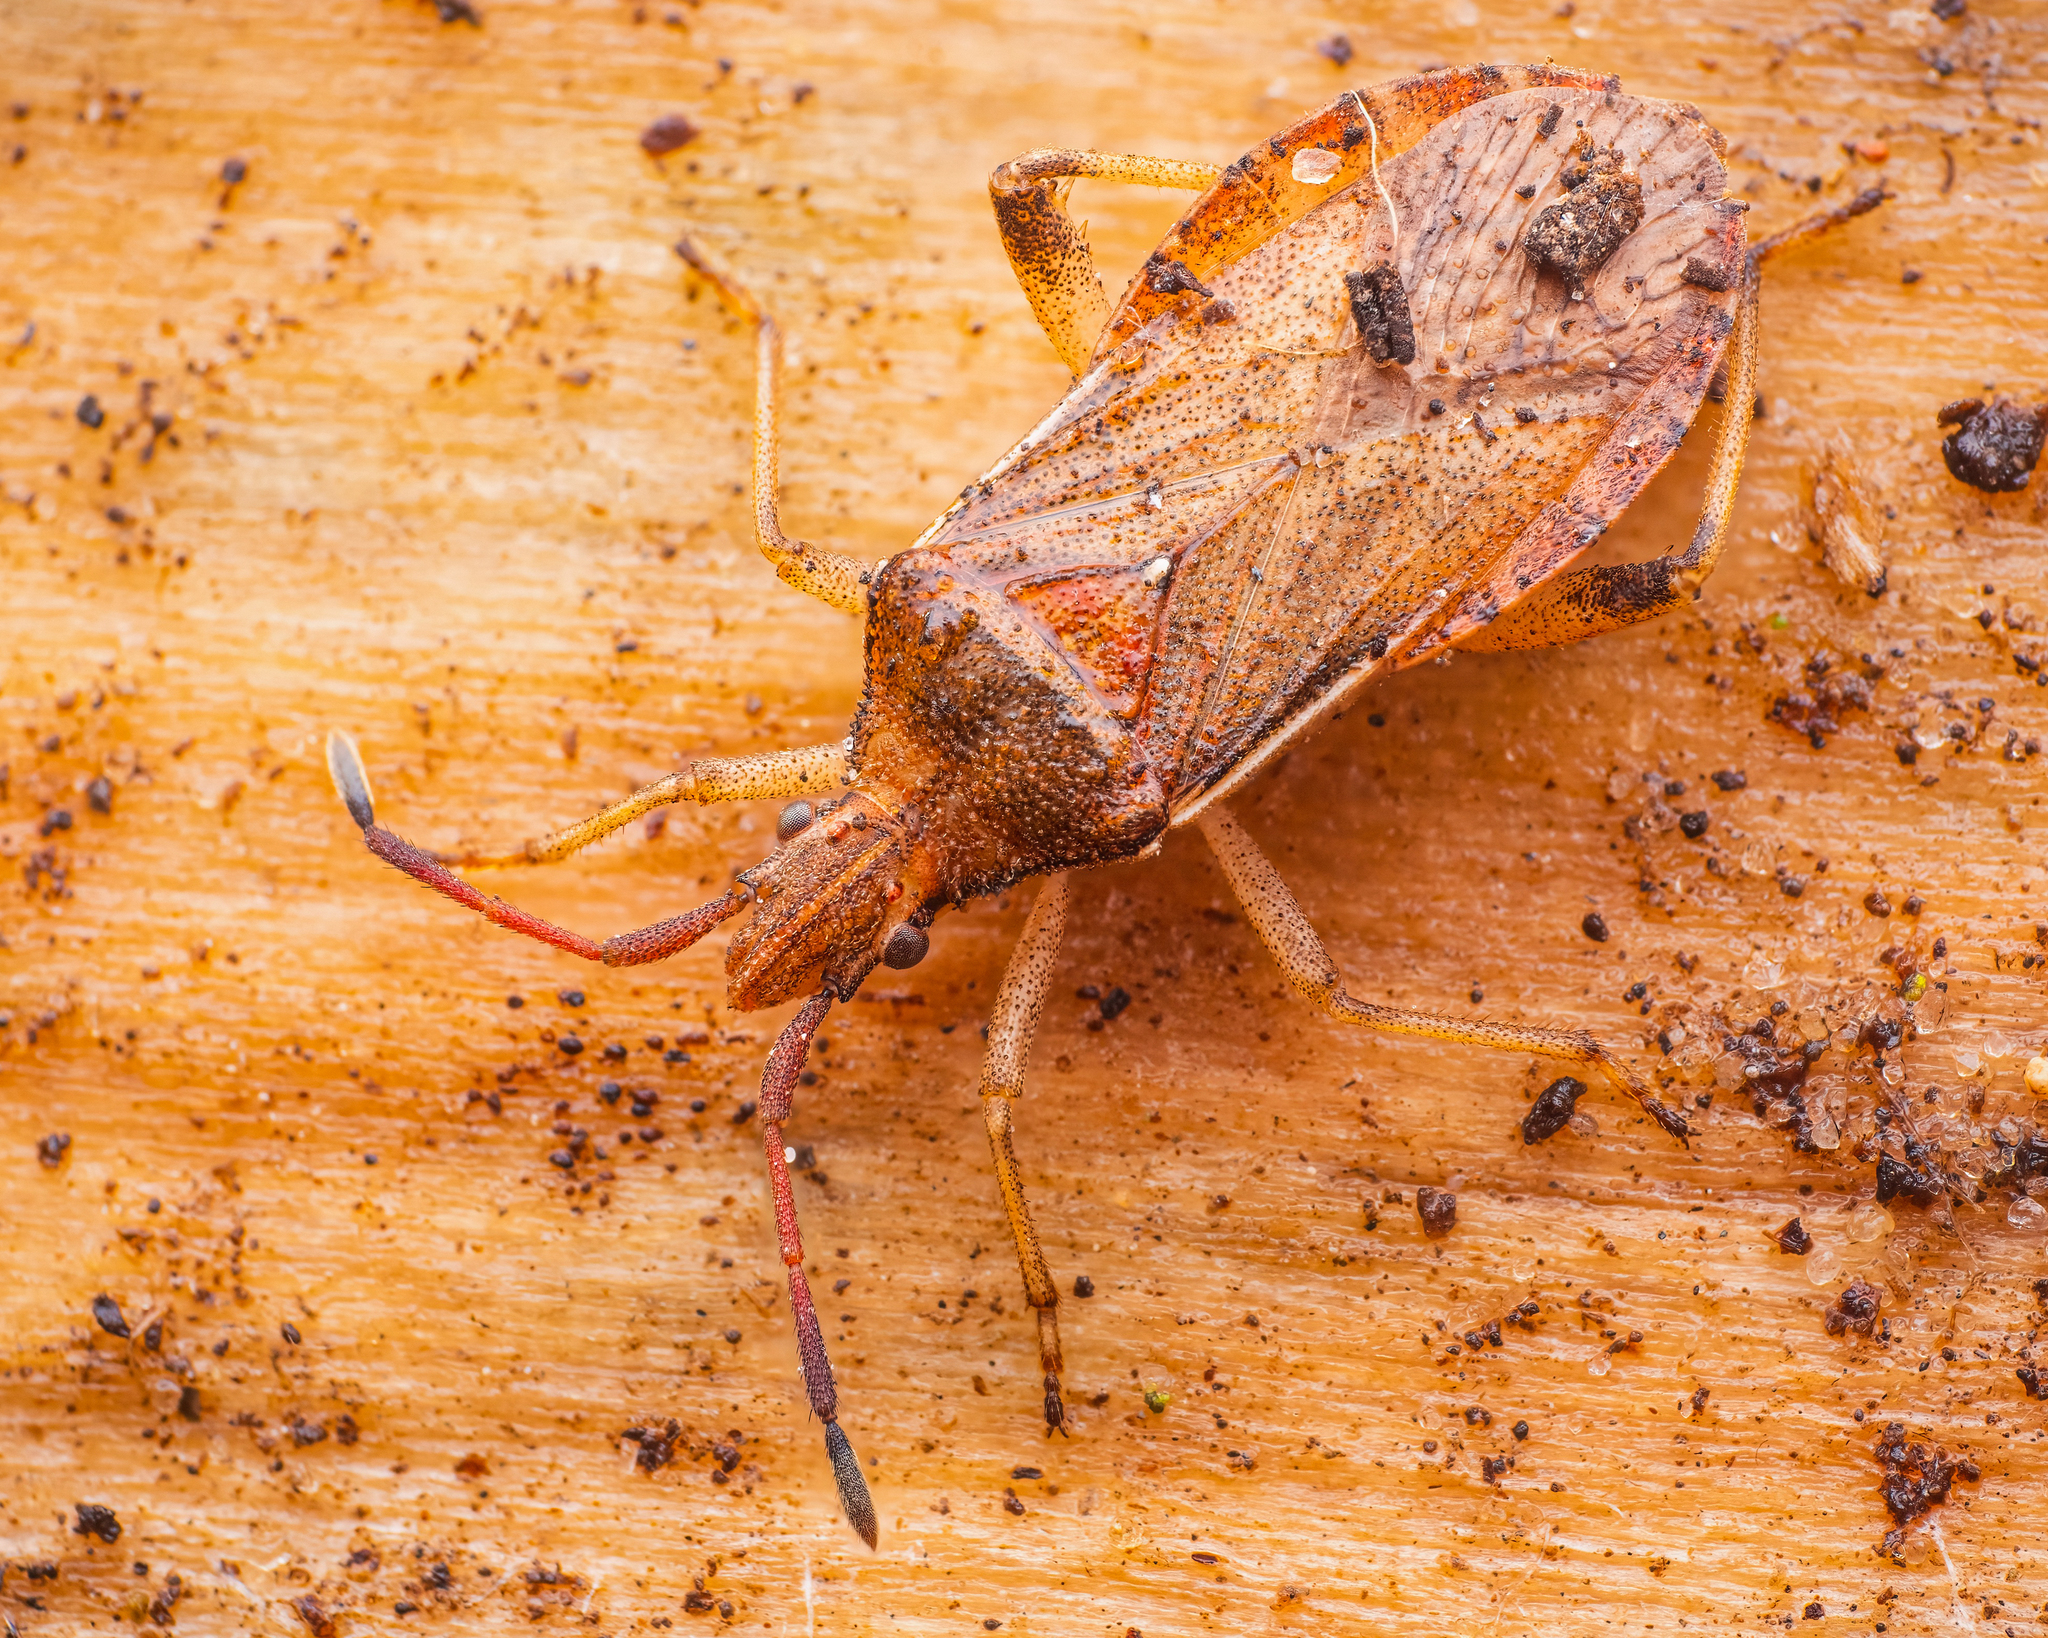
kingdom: Animalia
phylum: Arthropoda
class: Insecta
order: Hemiptera
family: Coreidae
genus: Ceraleptus
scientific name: Ceraleptus lividus
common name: Slender-horned leatherbug
